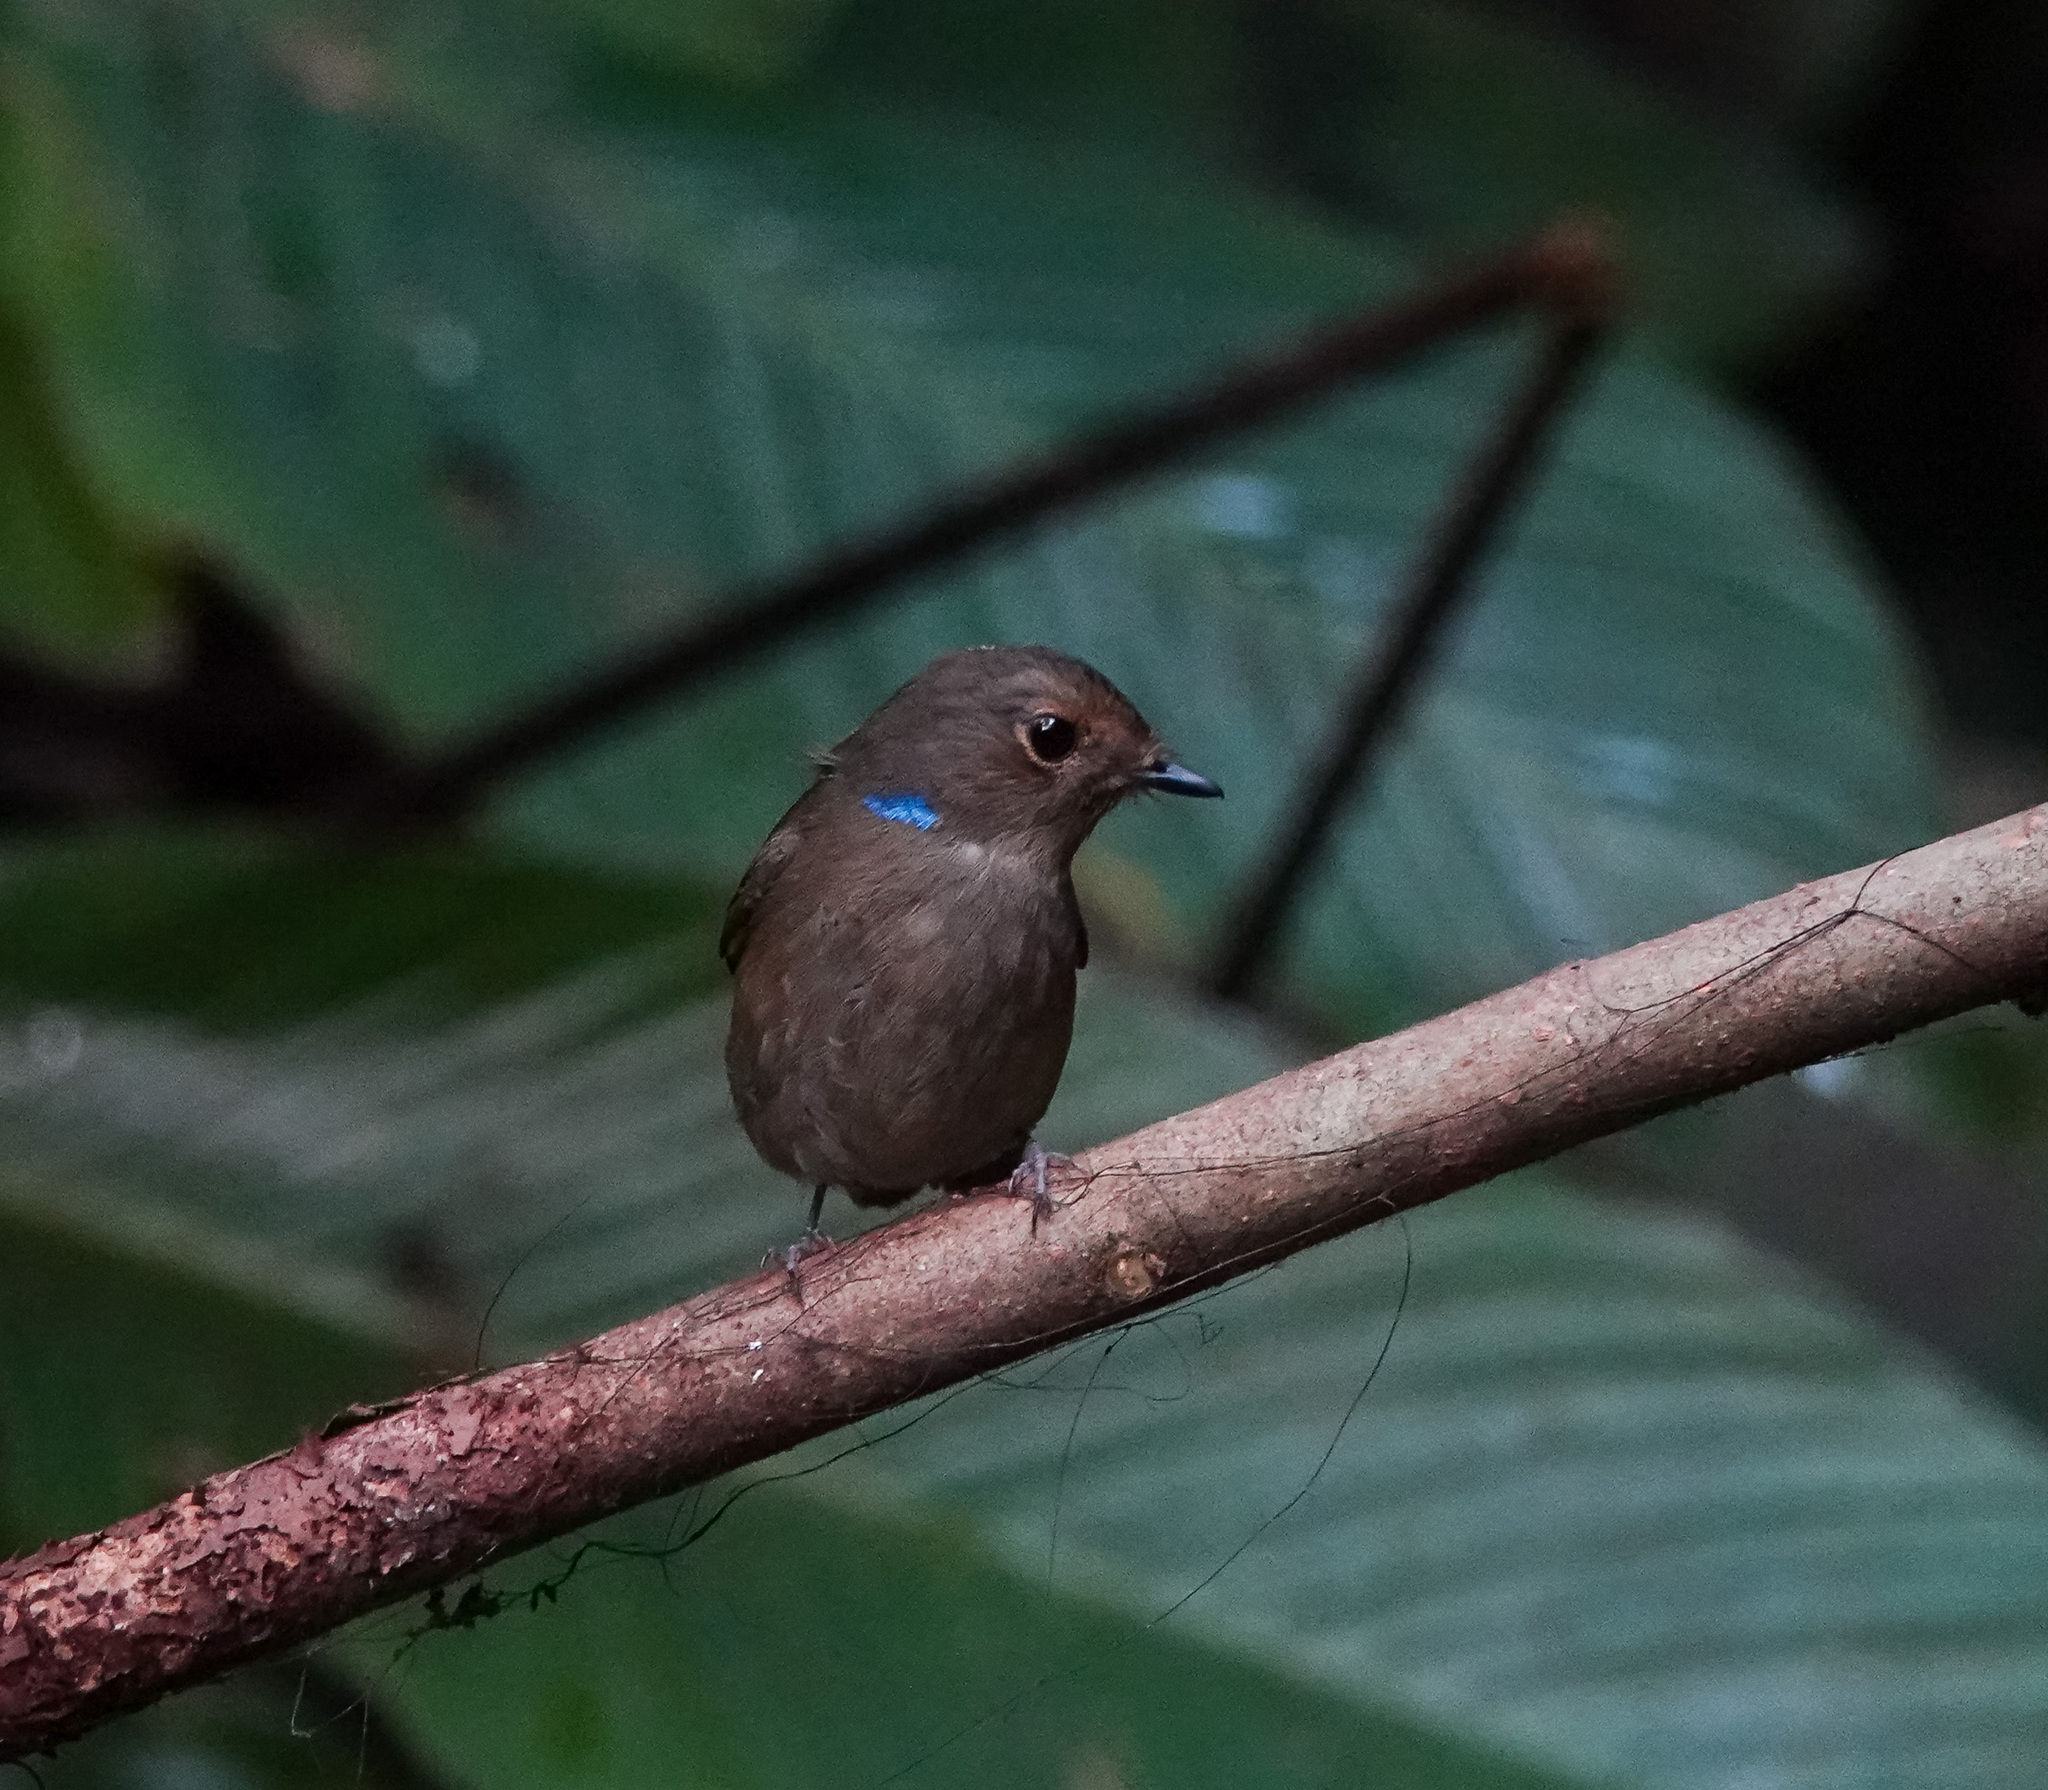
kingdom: Animalia
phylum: Chordata
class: Aves
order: Passeriformes
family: Muscicapidae
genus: Niltava
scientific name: Niltava macgrigoriae
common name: Small niltava
